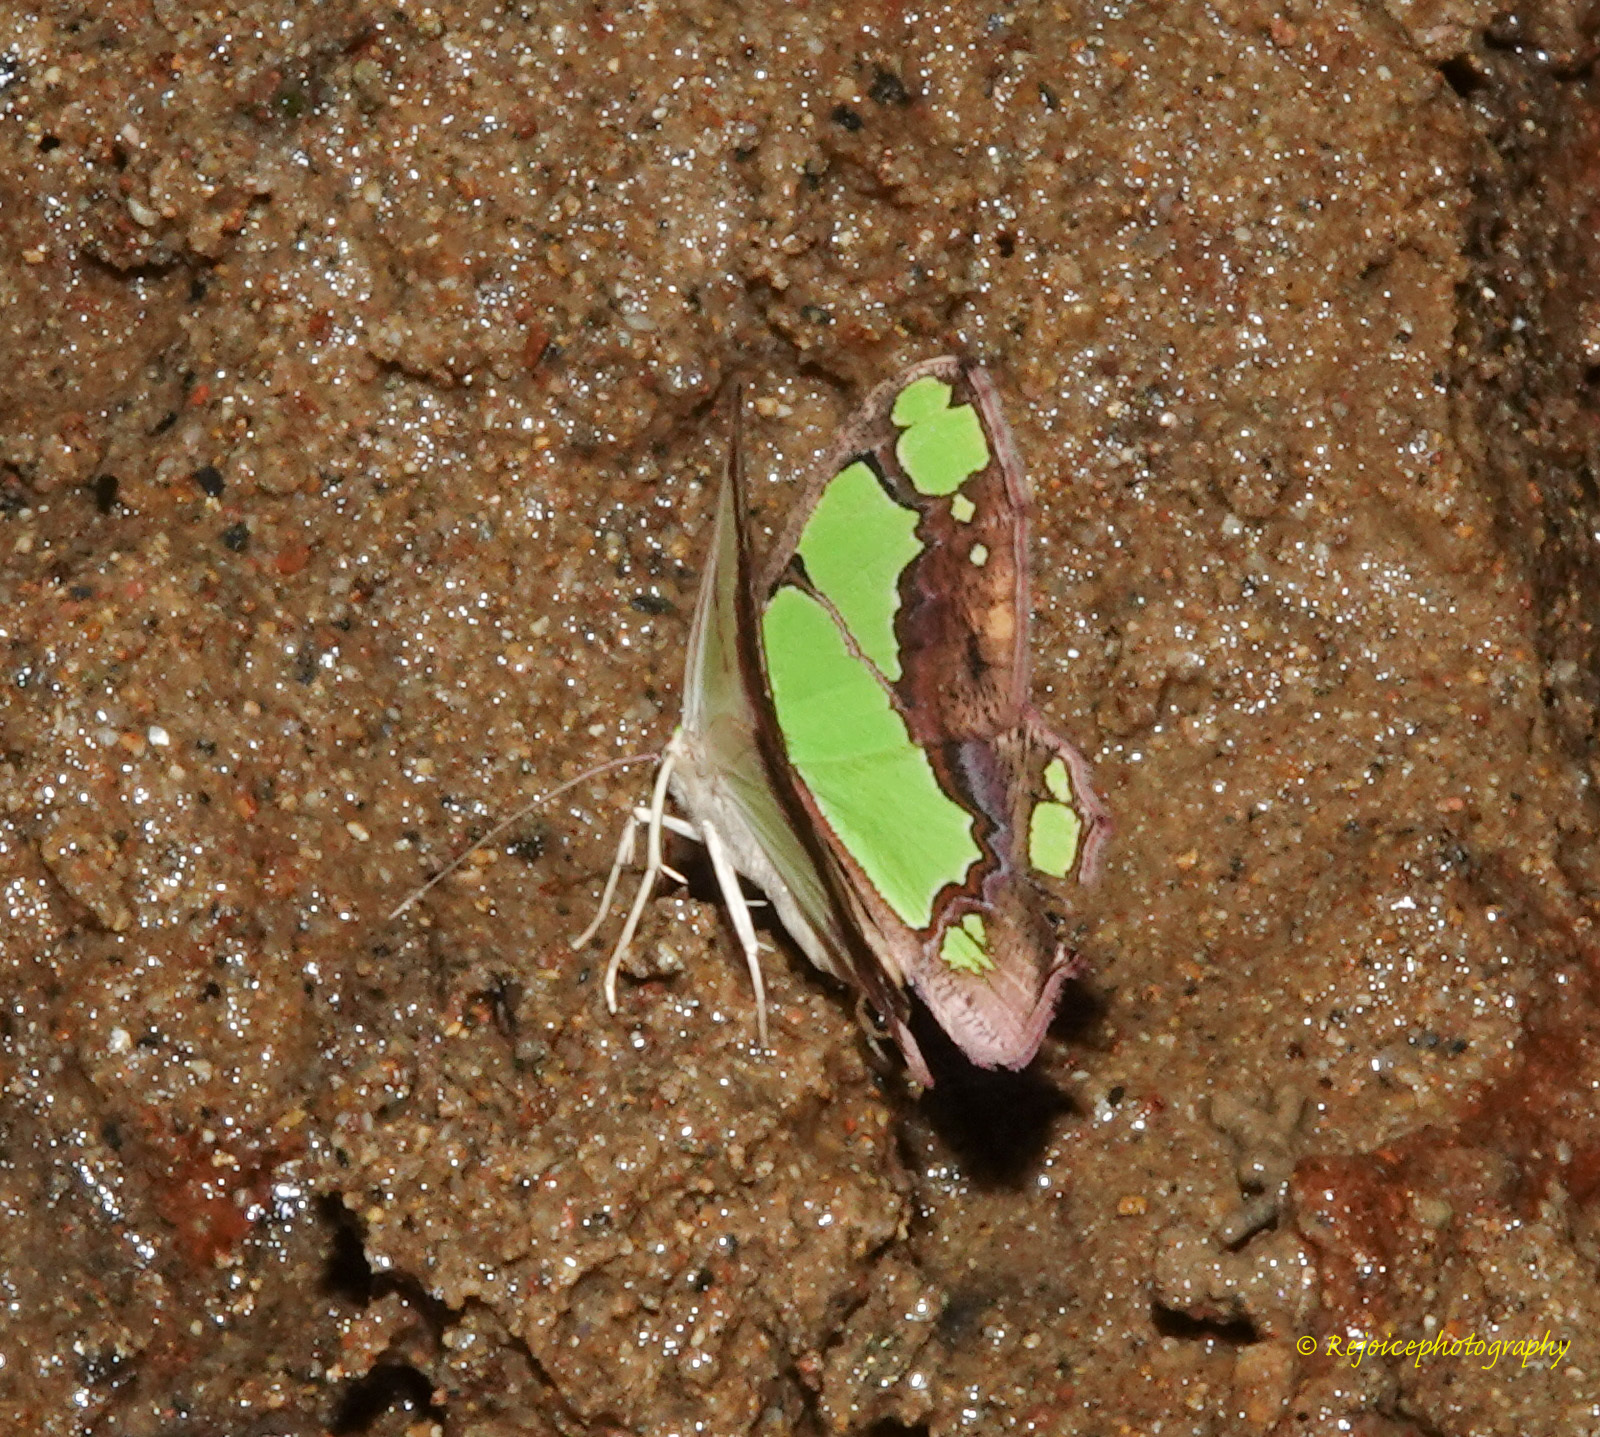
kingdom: Animalia
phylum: Arthropoda
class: Insecta
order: Lepidoptera
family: Geometridae
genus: Agathia
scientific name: Agathia arcuata
